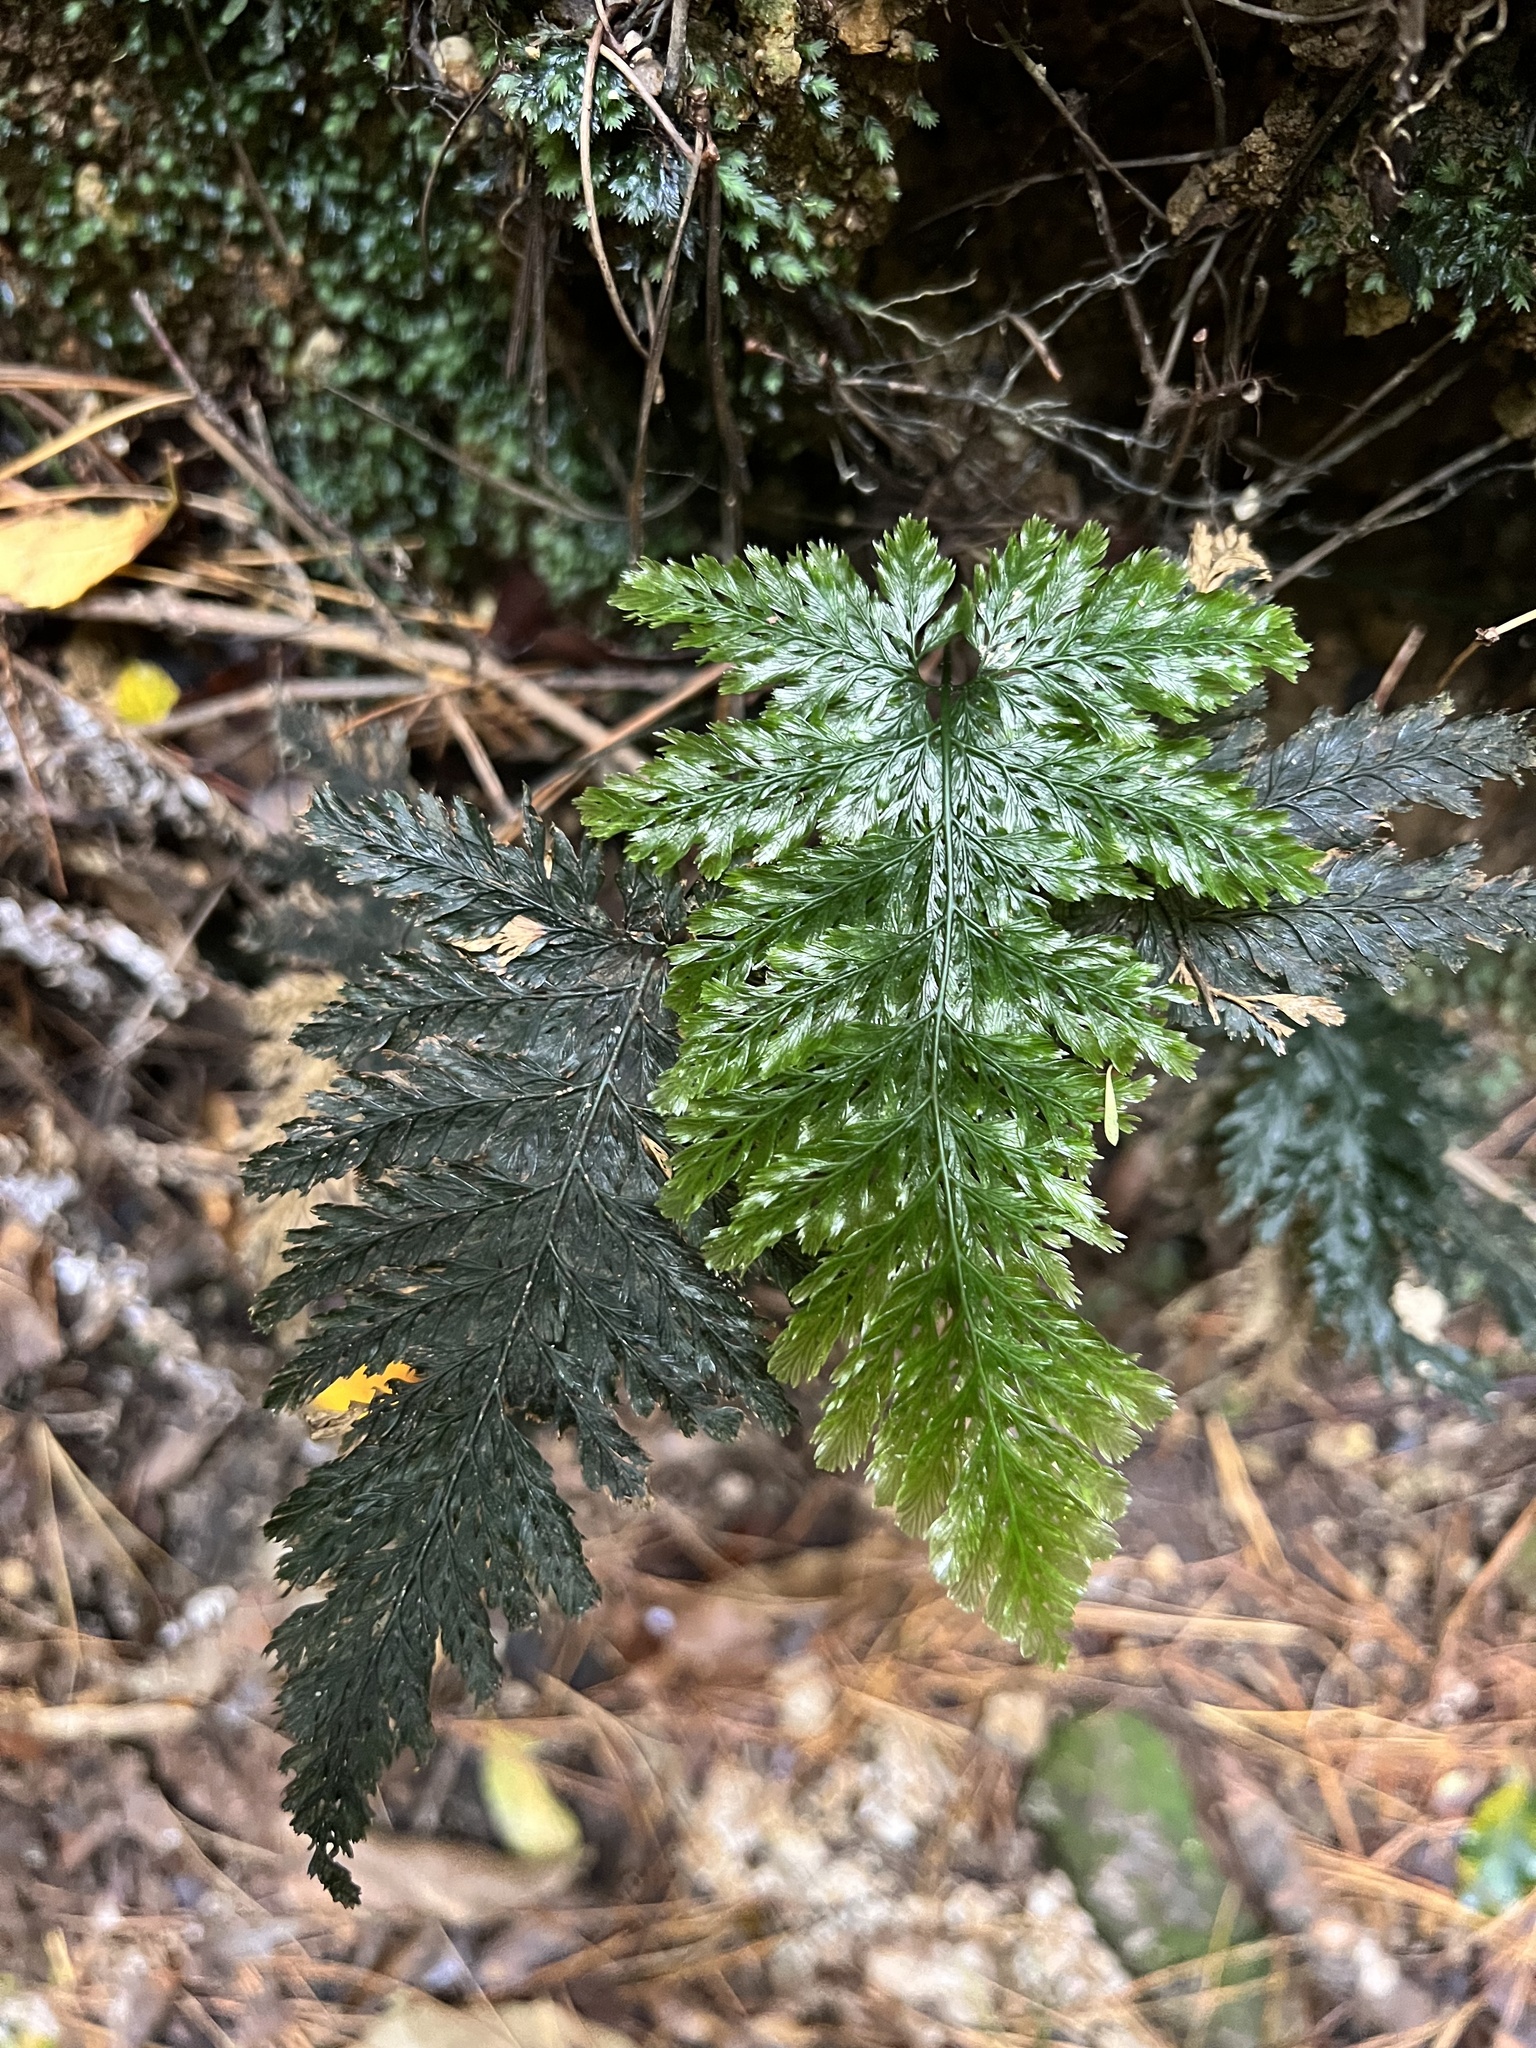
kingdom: Plantae
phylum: Tracheophyta
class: Polypodiopsida
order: Hymenophyllales
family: Hymenophyllaceae
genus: Abrodictyum
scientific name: Abrodictyum elongatum
